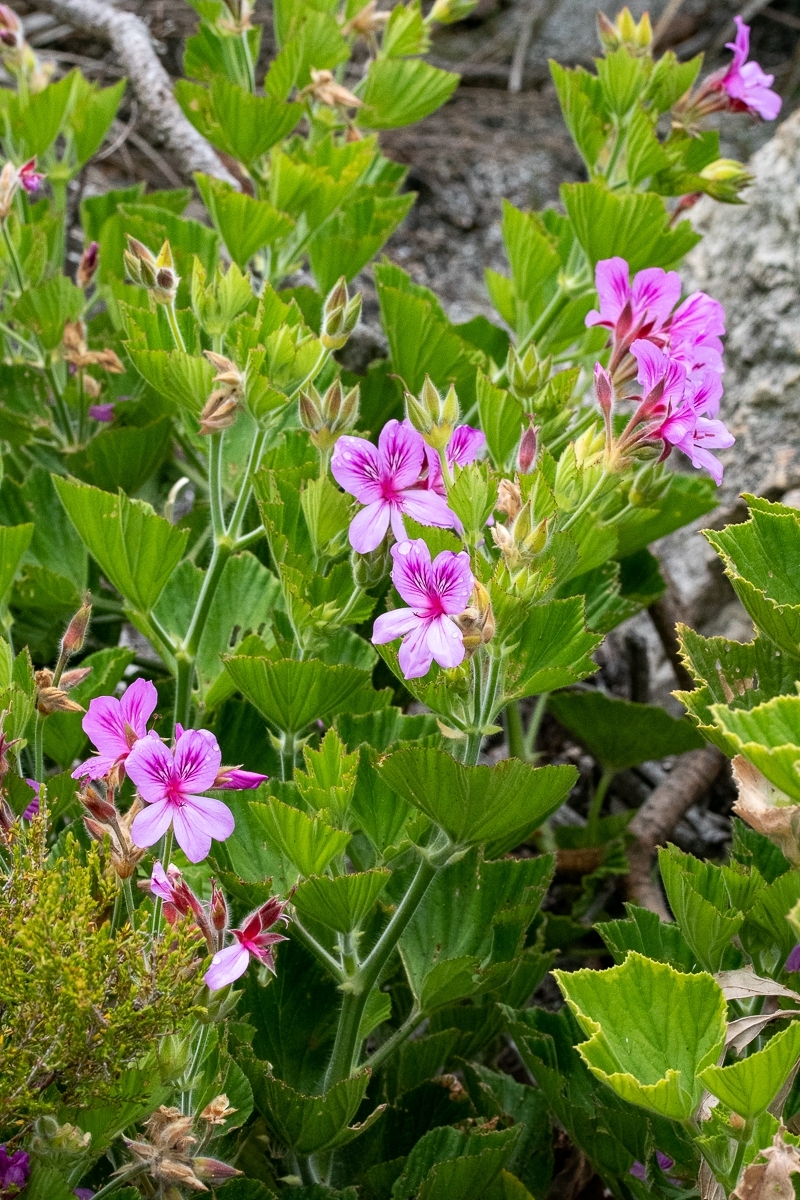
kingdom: Plantae
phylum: Tracheophyta
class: Magnoliopsida
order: Geraniales
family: Geraniaceae
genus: Pelargonium
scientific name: Pelargonium cucullatum
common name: Tree pelargonium
